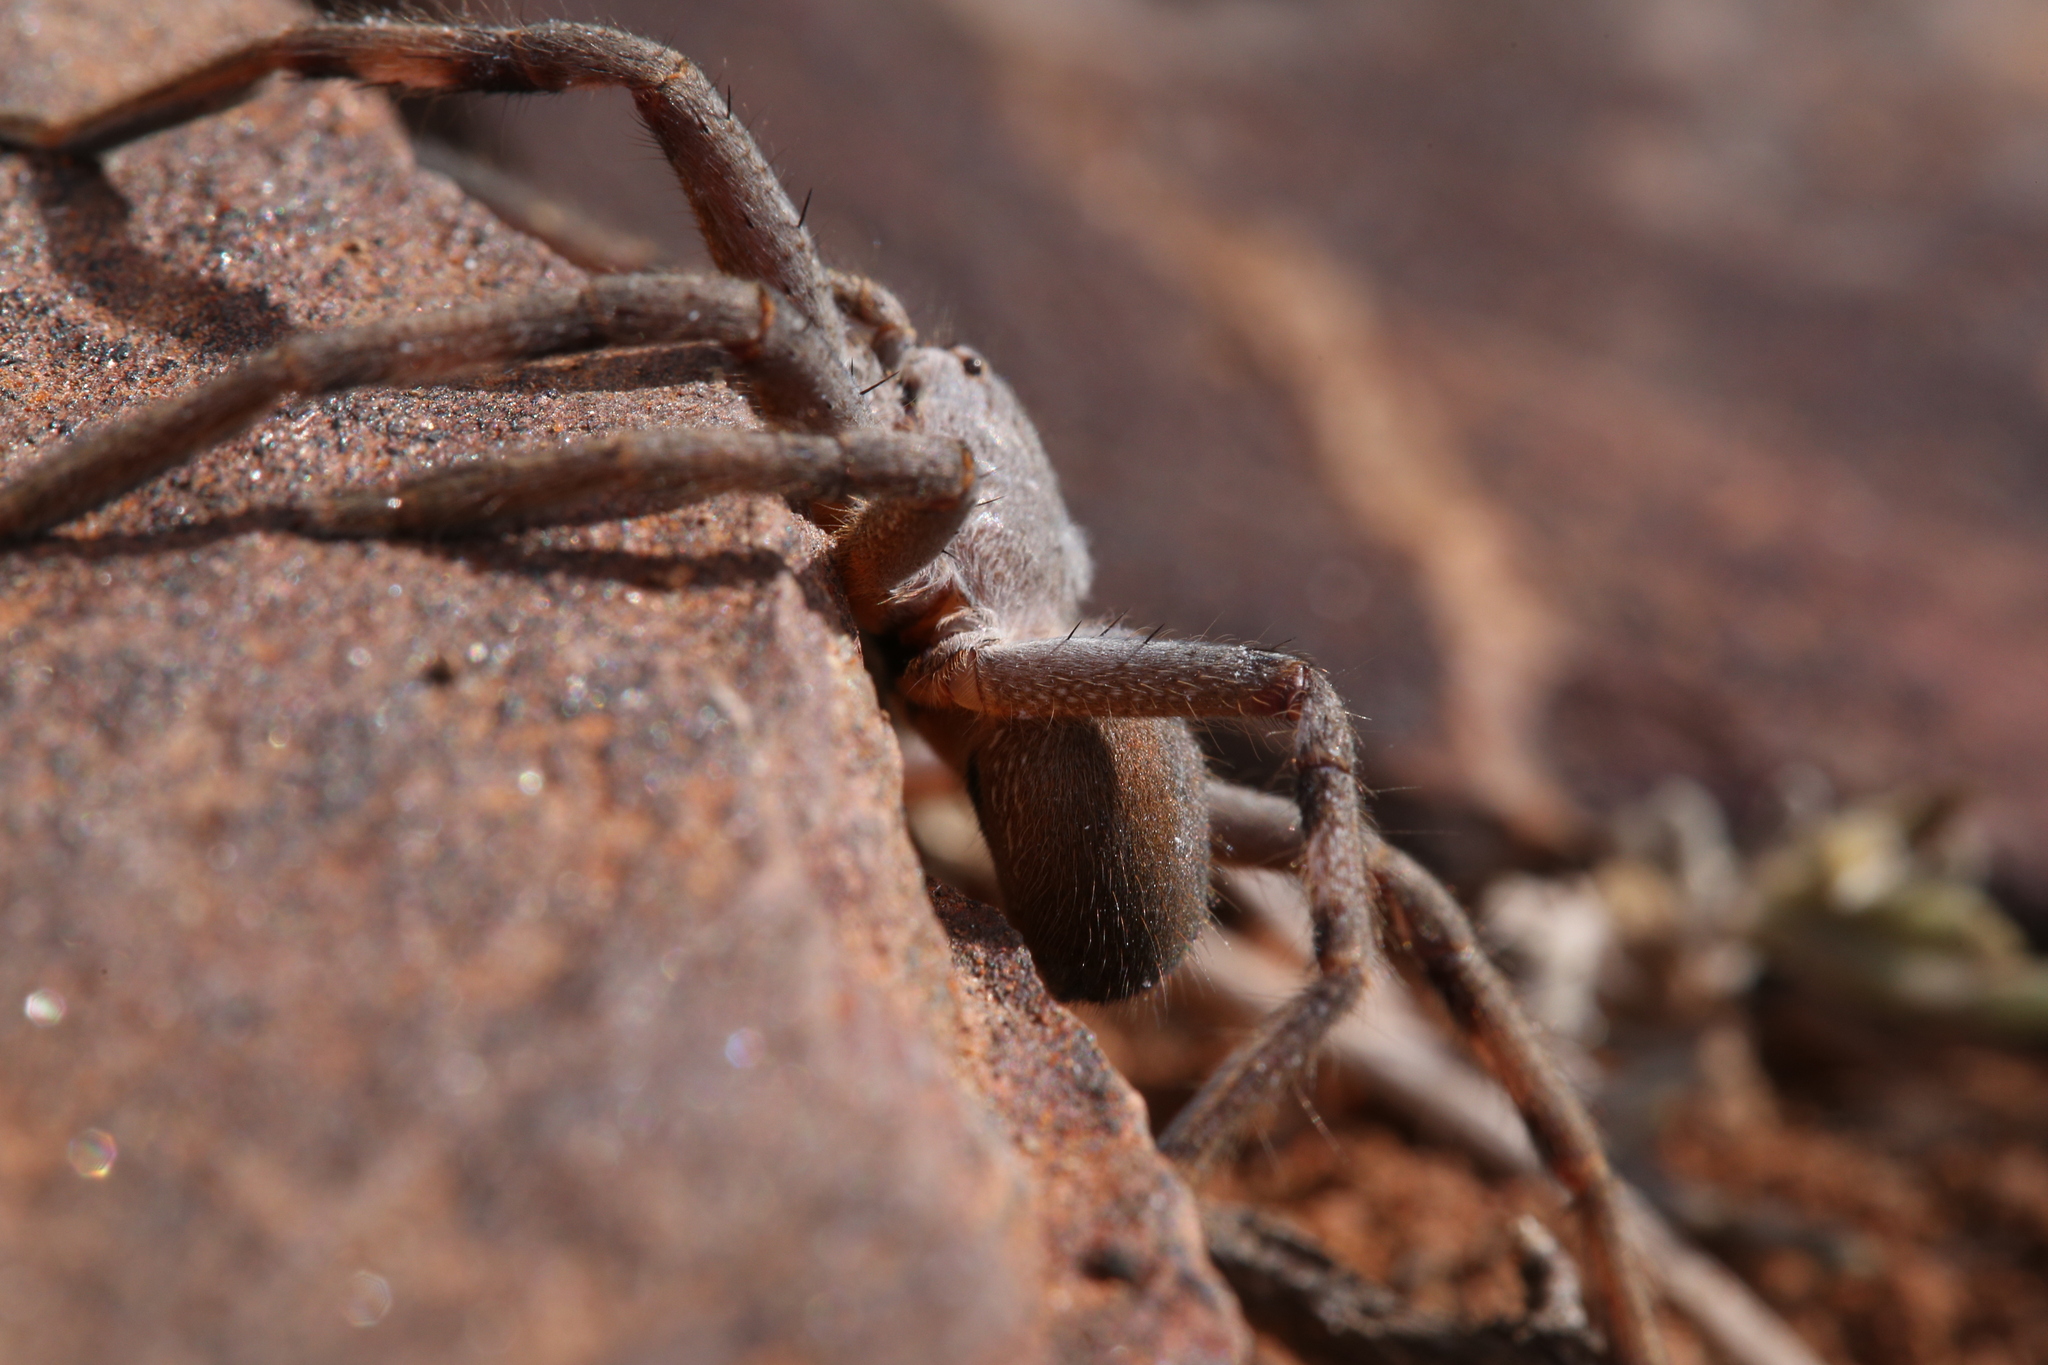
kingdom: Animalia
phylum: Arthropoda
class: Arachnida
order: Araneae
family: Sparassidae
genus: Isopedella
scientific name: Isopedella saundersi
